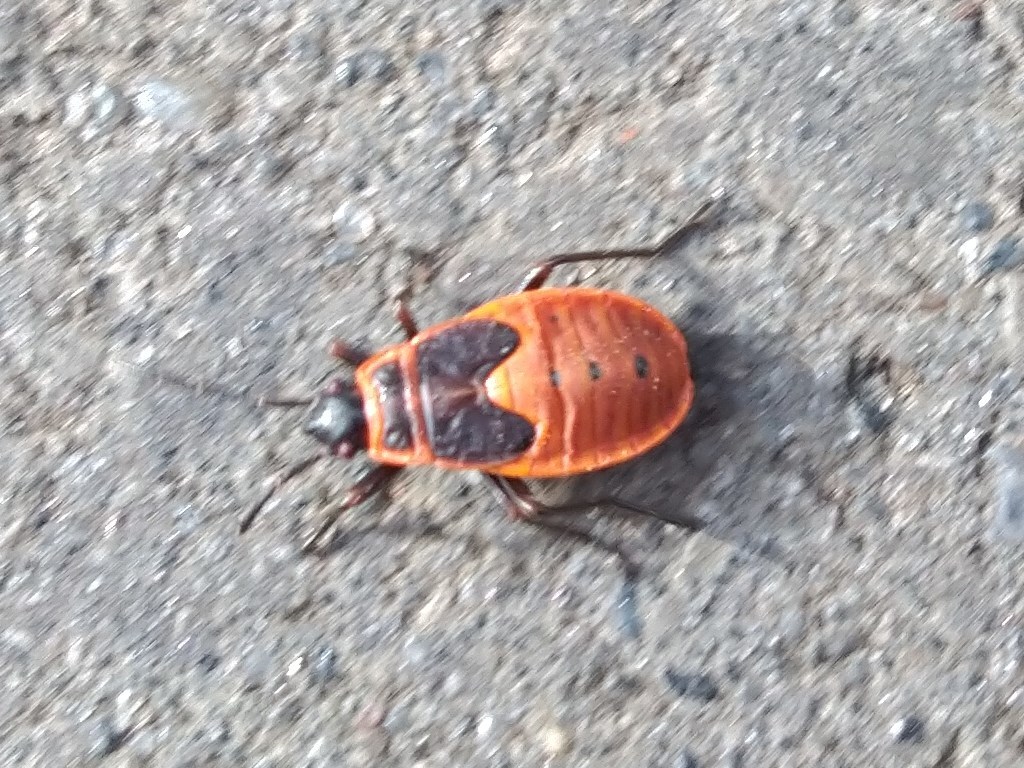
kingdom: Animalia
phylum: Arthropoda
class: Insecta
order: Hemiptera
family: Pyrrhocoridae
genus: Pyrrhocoris
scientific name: Pyrrhocoris apterus
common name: Firebug
